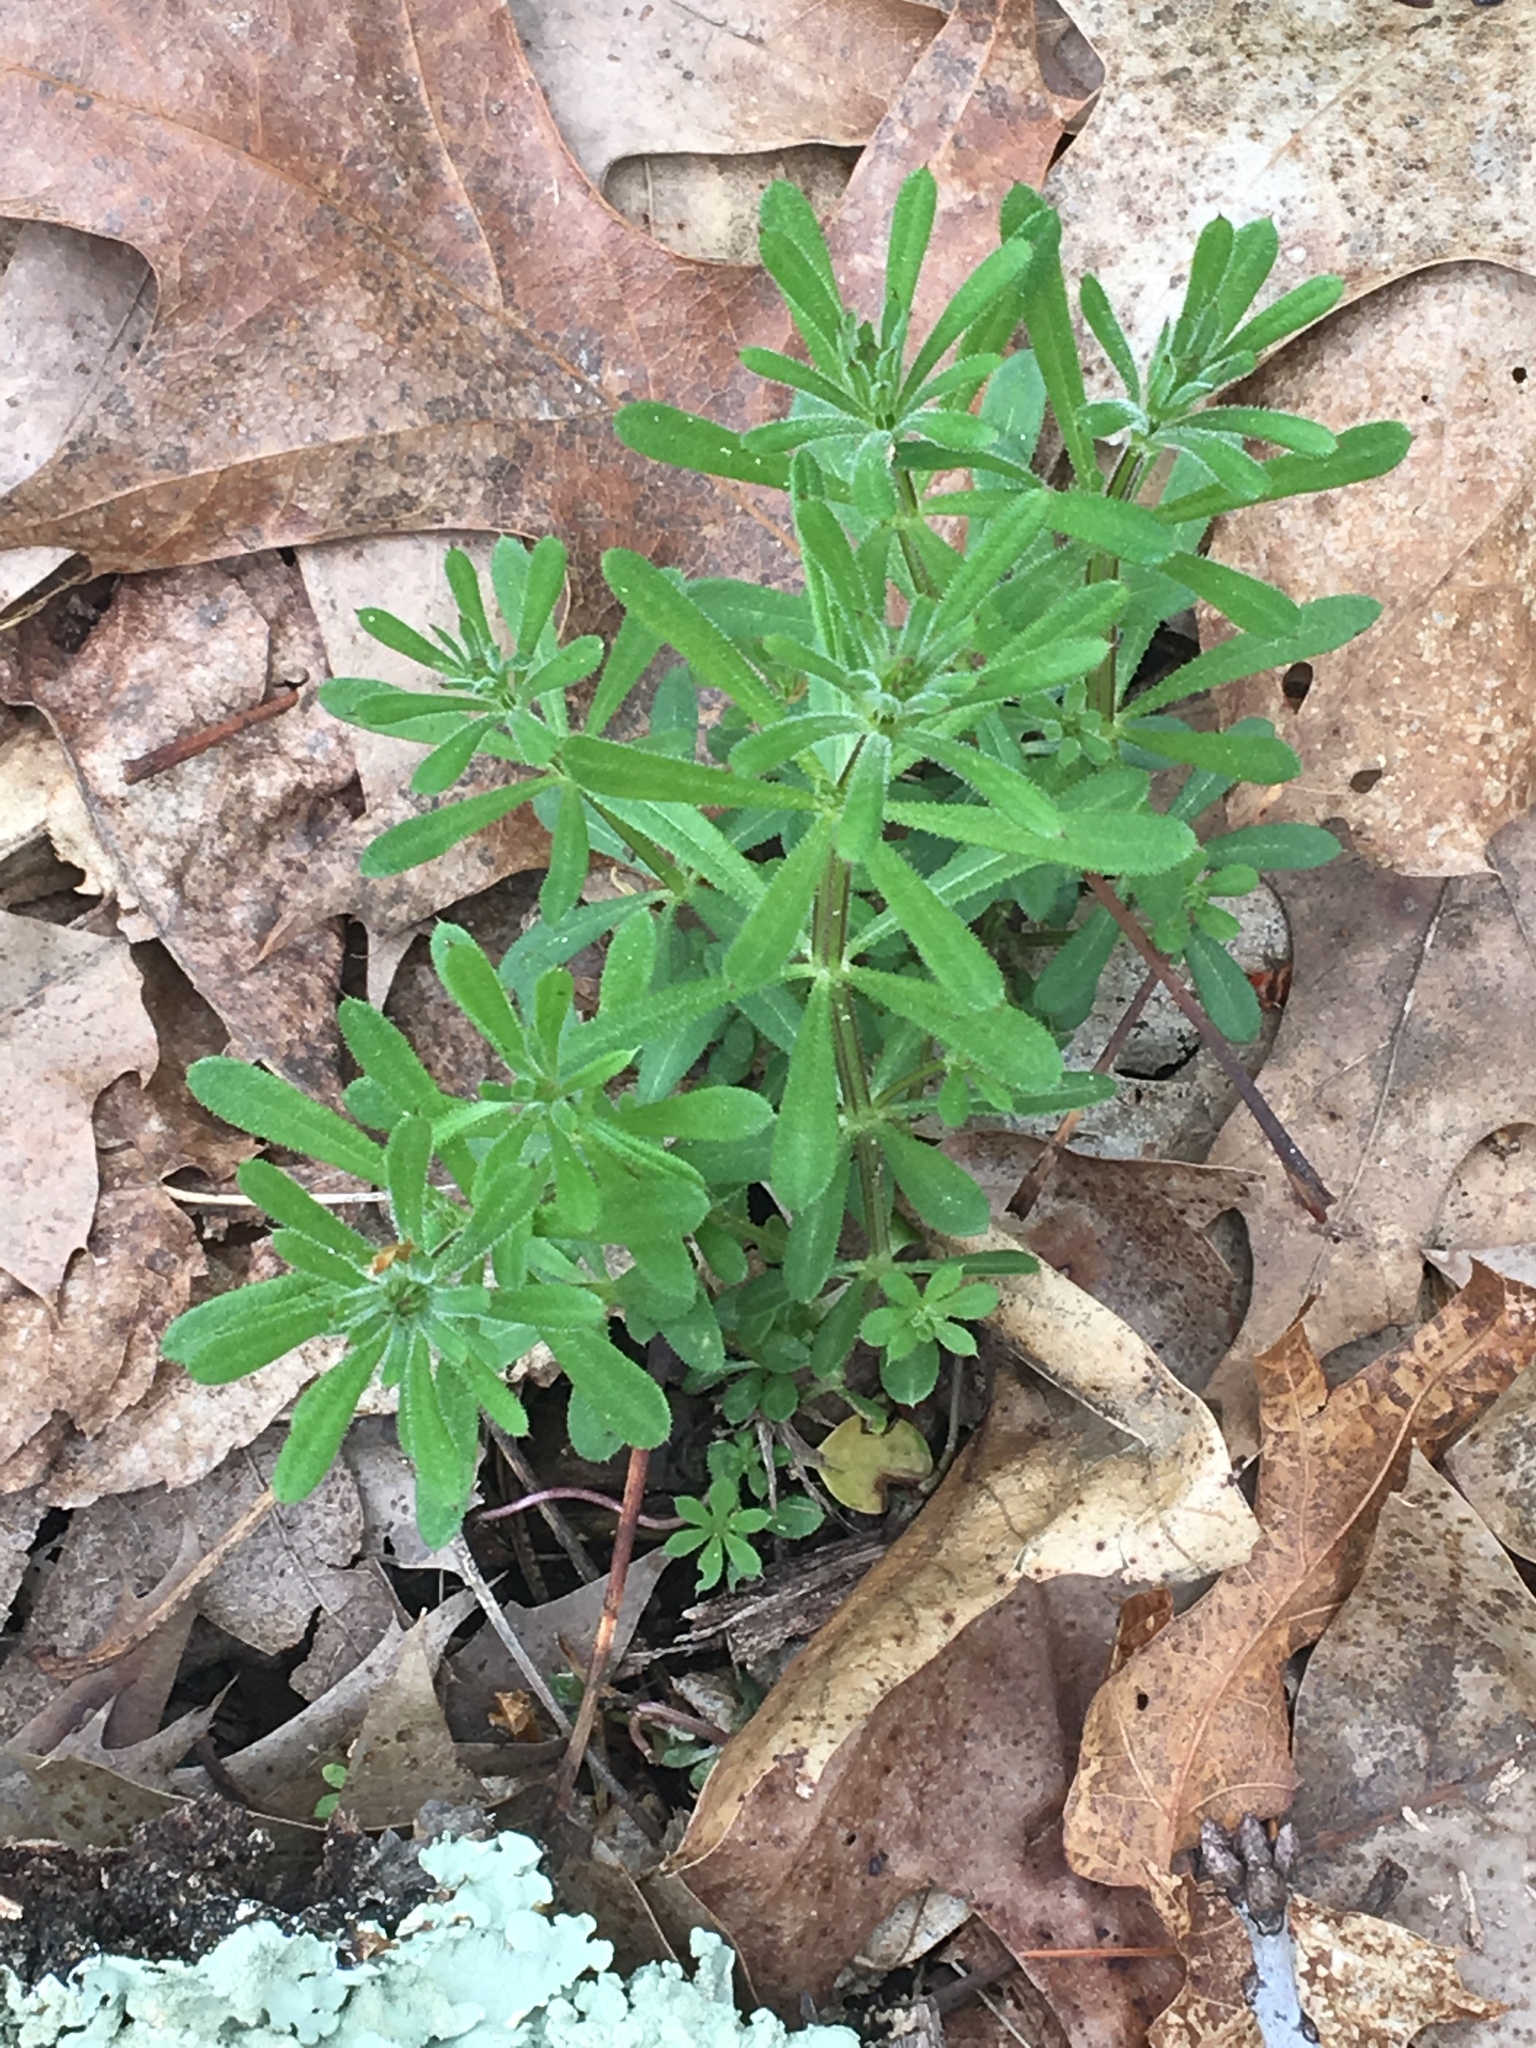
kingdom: Plantae
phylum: Tracheophyta
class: Magnoliopsida
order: Gentianales
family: Rubiaceae
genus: Galium
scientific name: Galium aparine
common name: Cleavers
